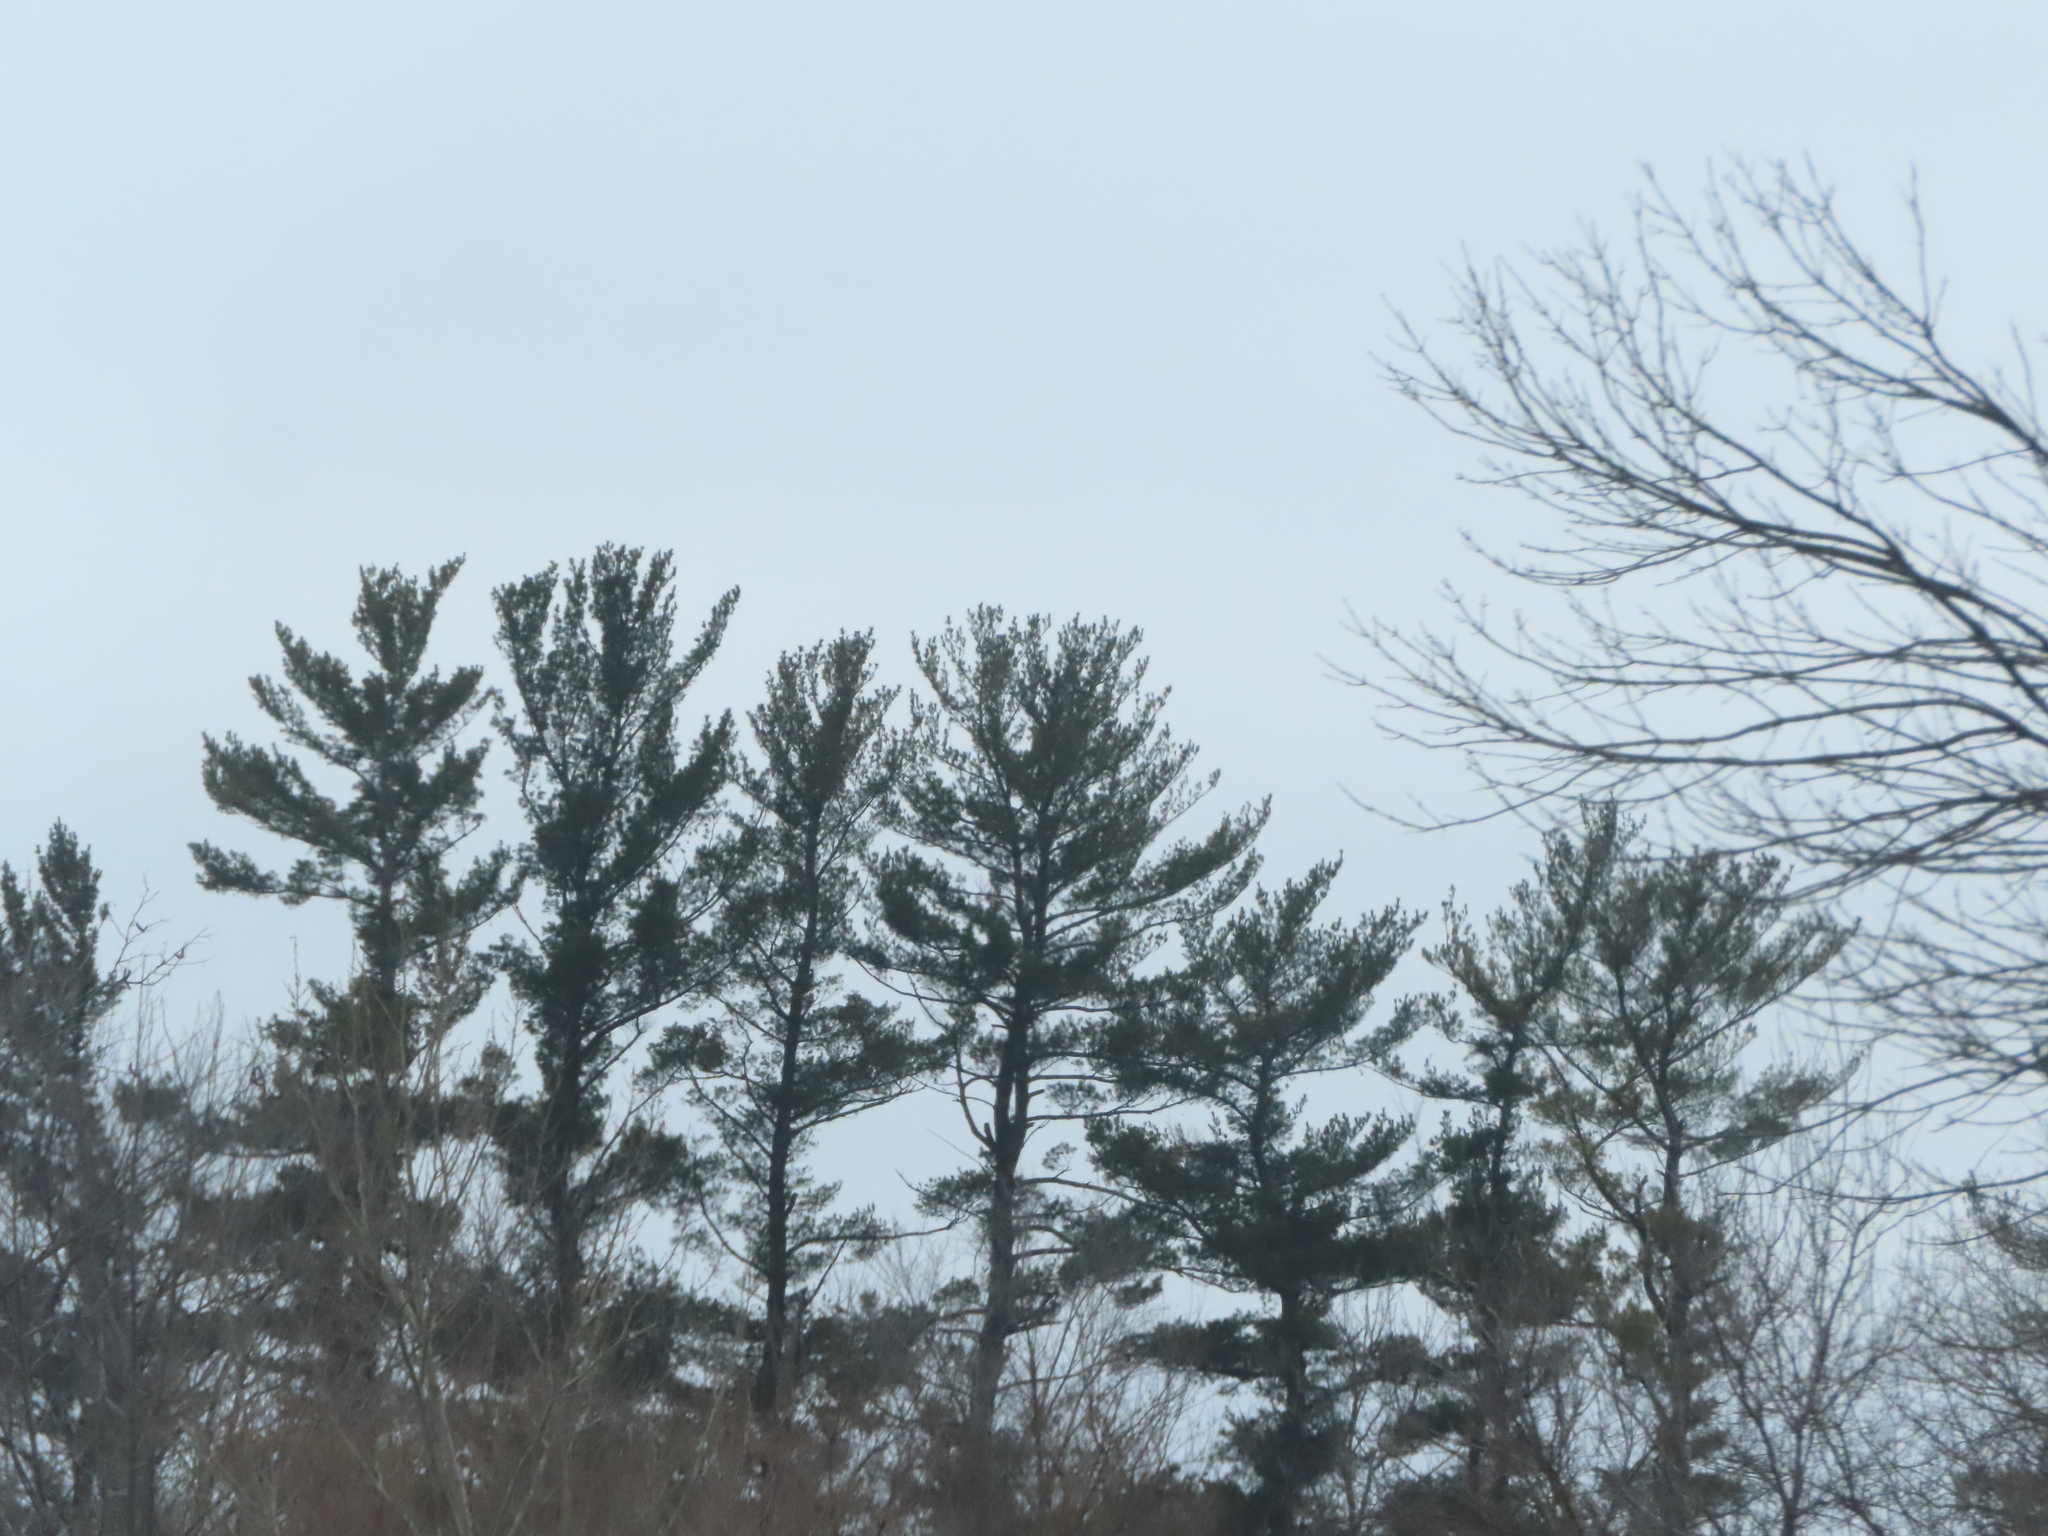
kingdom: Plantae
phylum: Tracheophyta
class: Pinopsida
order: Pinales
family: Pinaceae
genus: Pinus
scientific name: Pinus strobus
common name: Weymouth pine
